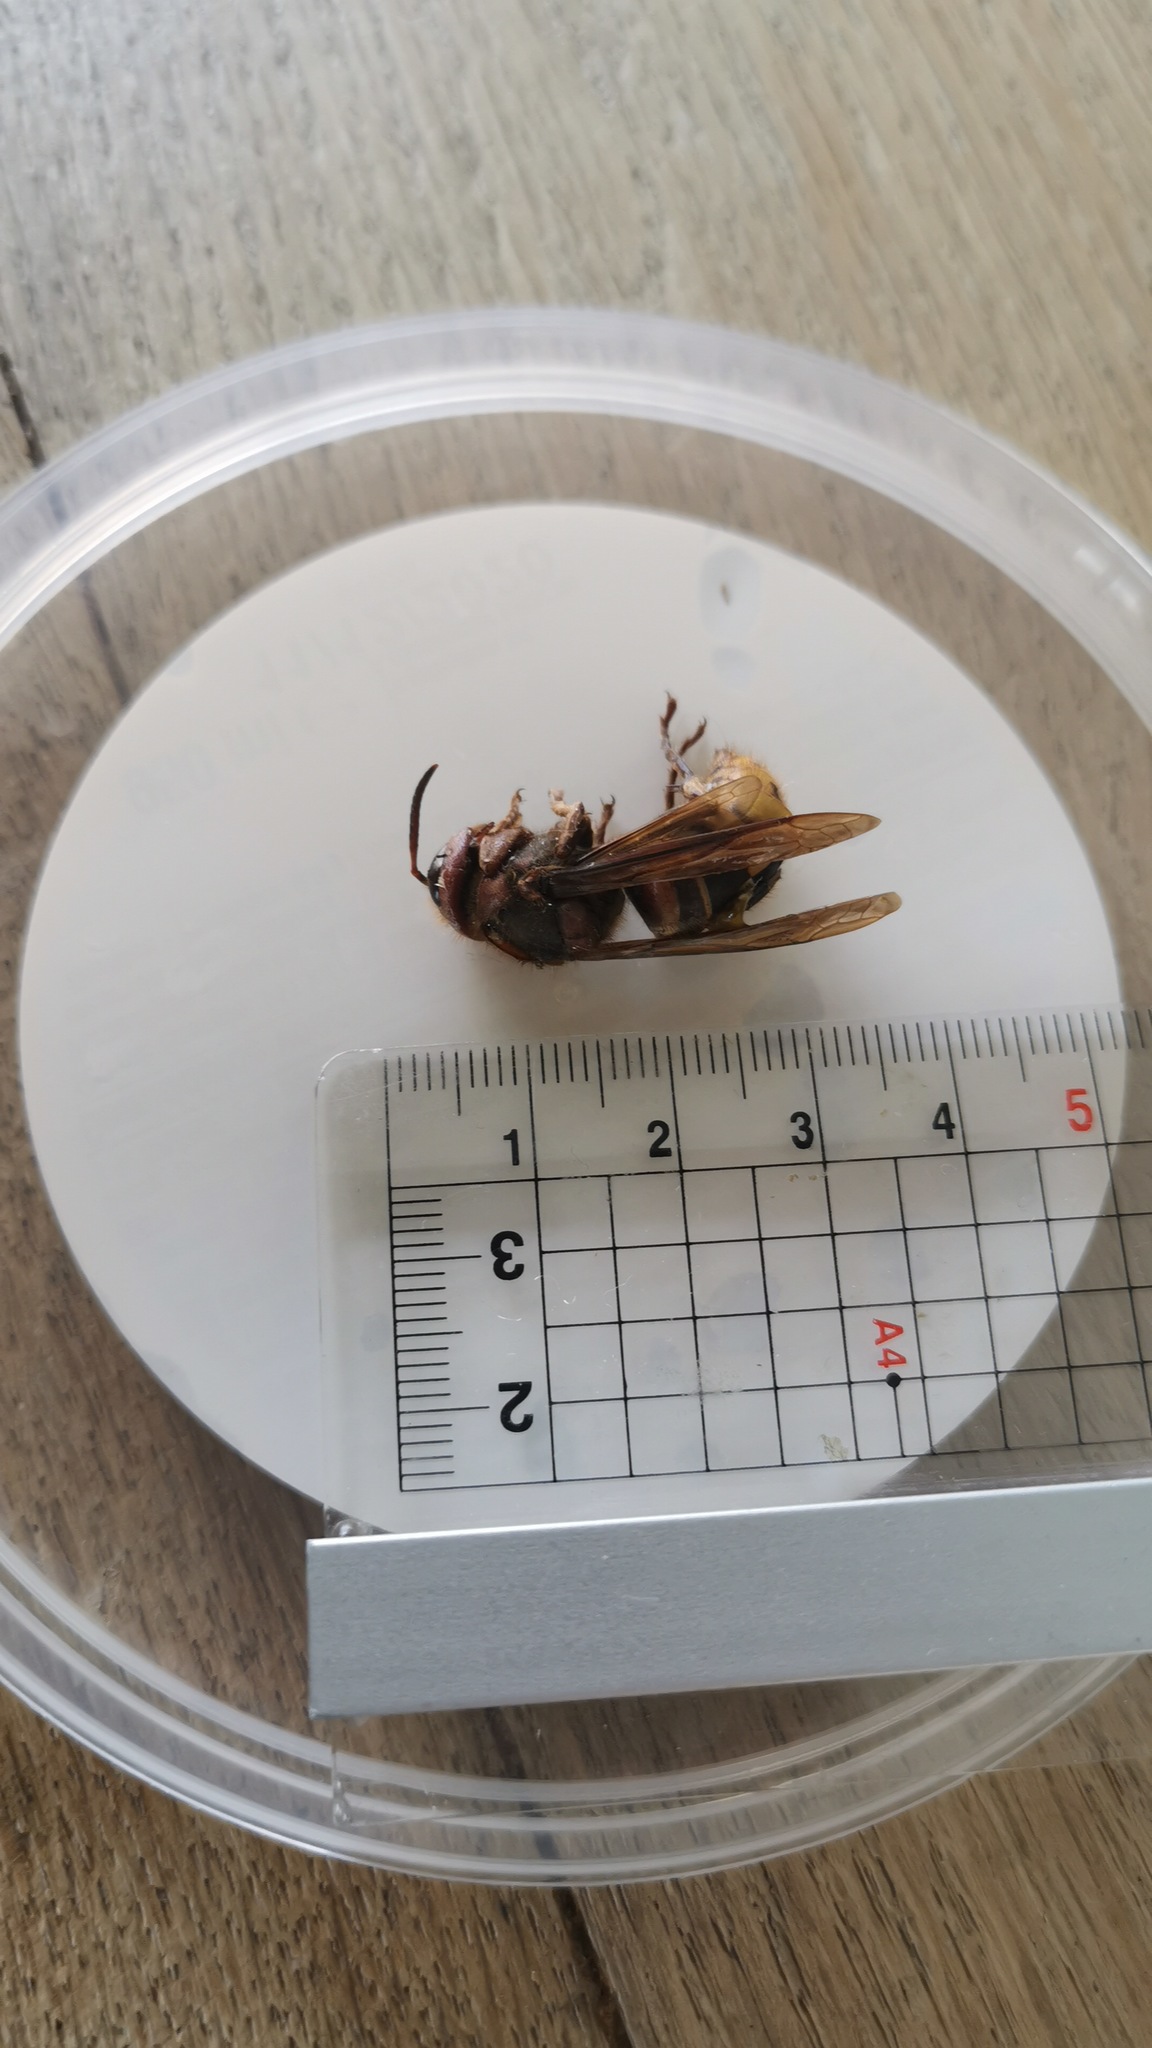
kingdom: Animalia
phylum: Arthropoda
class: Insecta
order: Hymenoptera
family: Vespidae
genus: Vespa
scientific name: Vespa crabro
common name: Hornet
